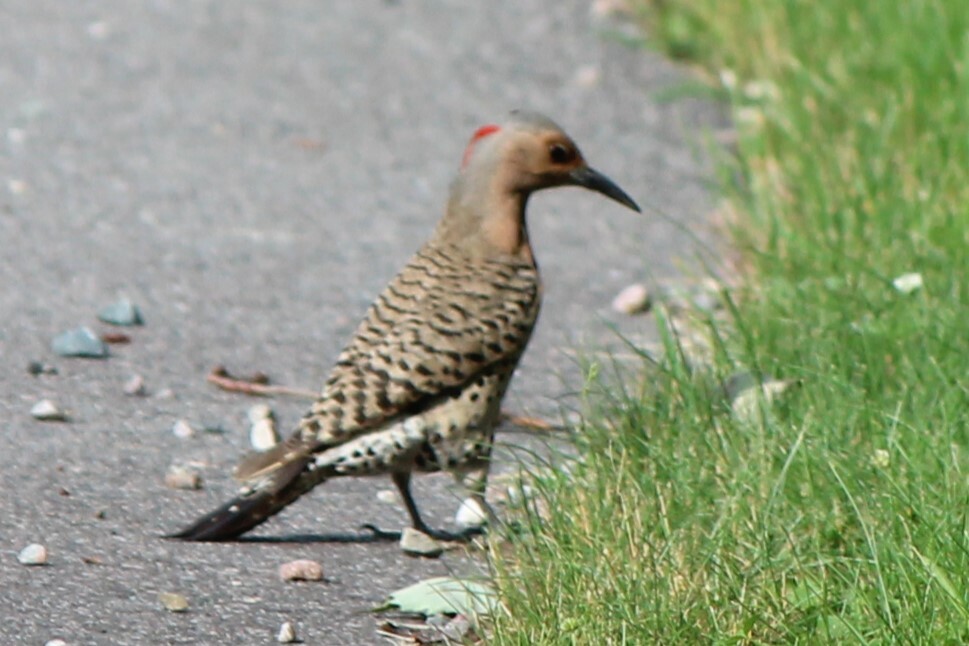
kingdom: Animalia
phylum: Chordata
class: Aves
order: Piciformes
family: Picidae
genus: Colaptes
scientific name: Colaptes auratus
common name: Northern flicker
